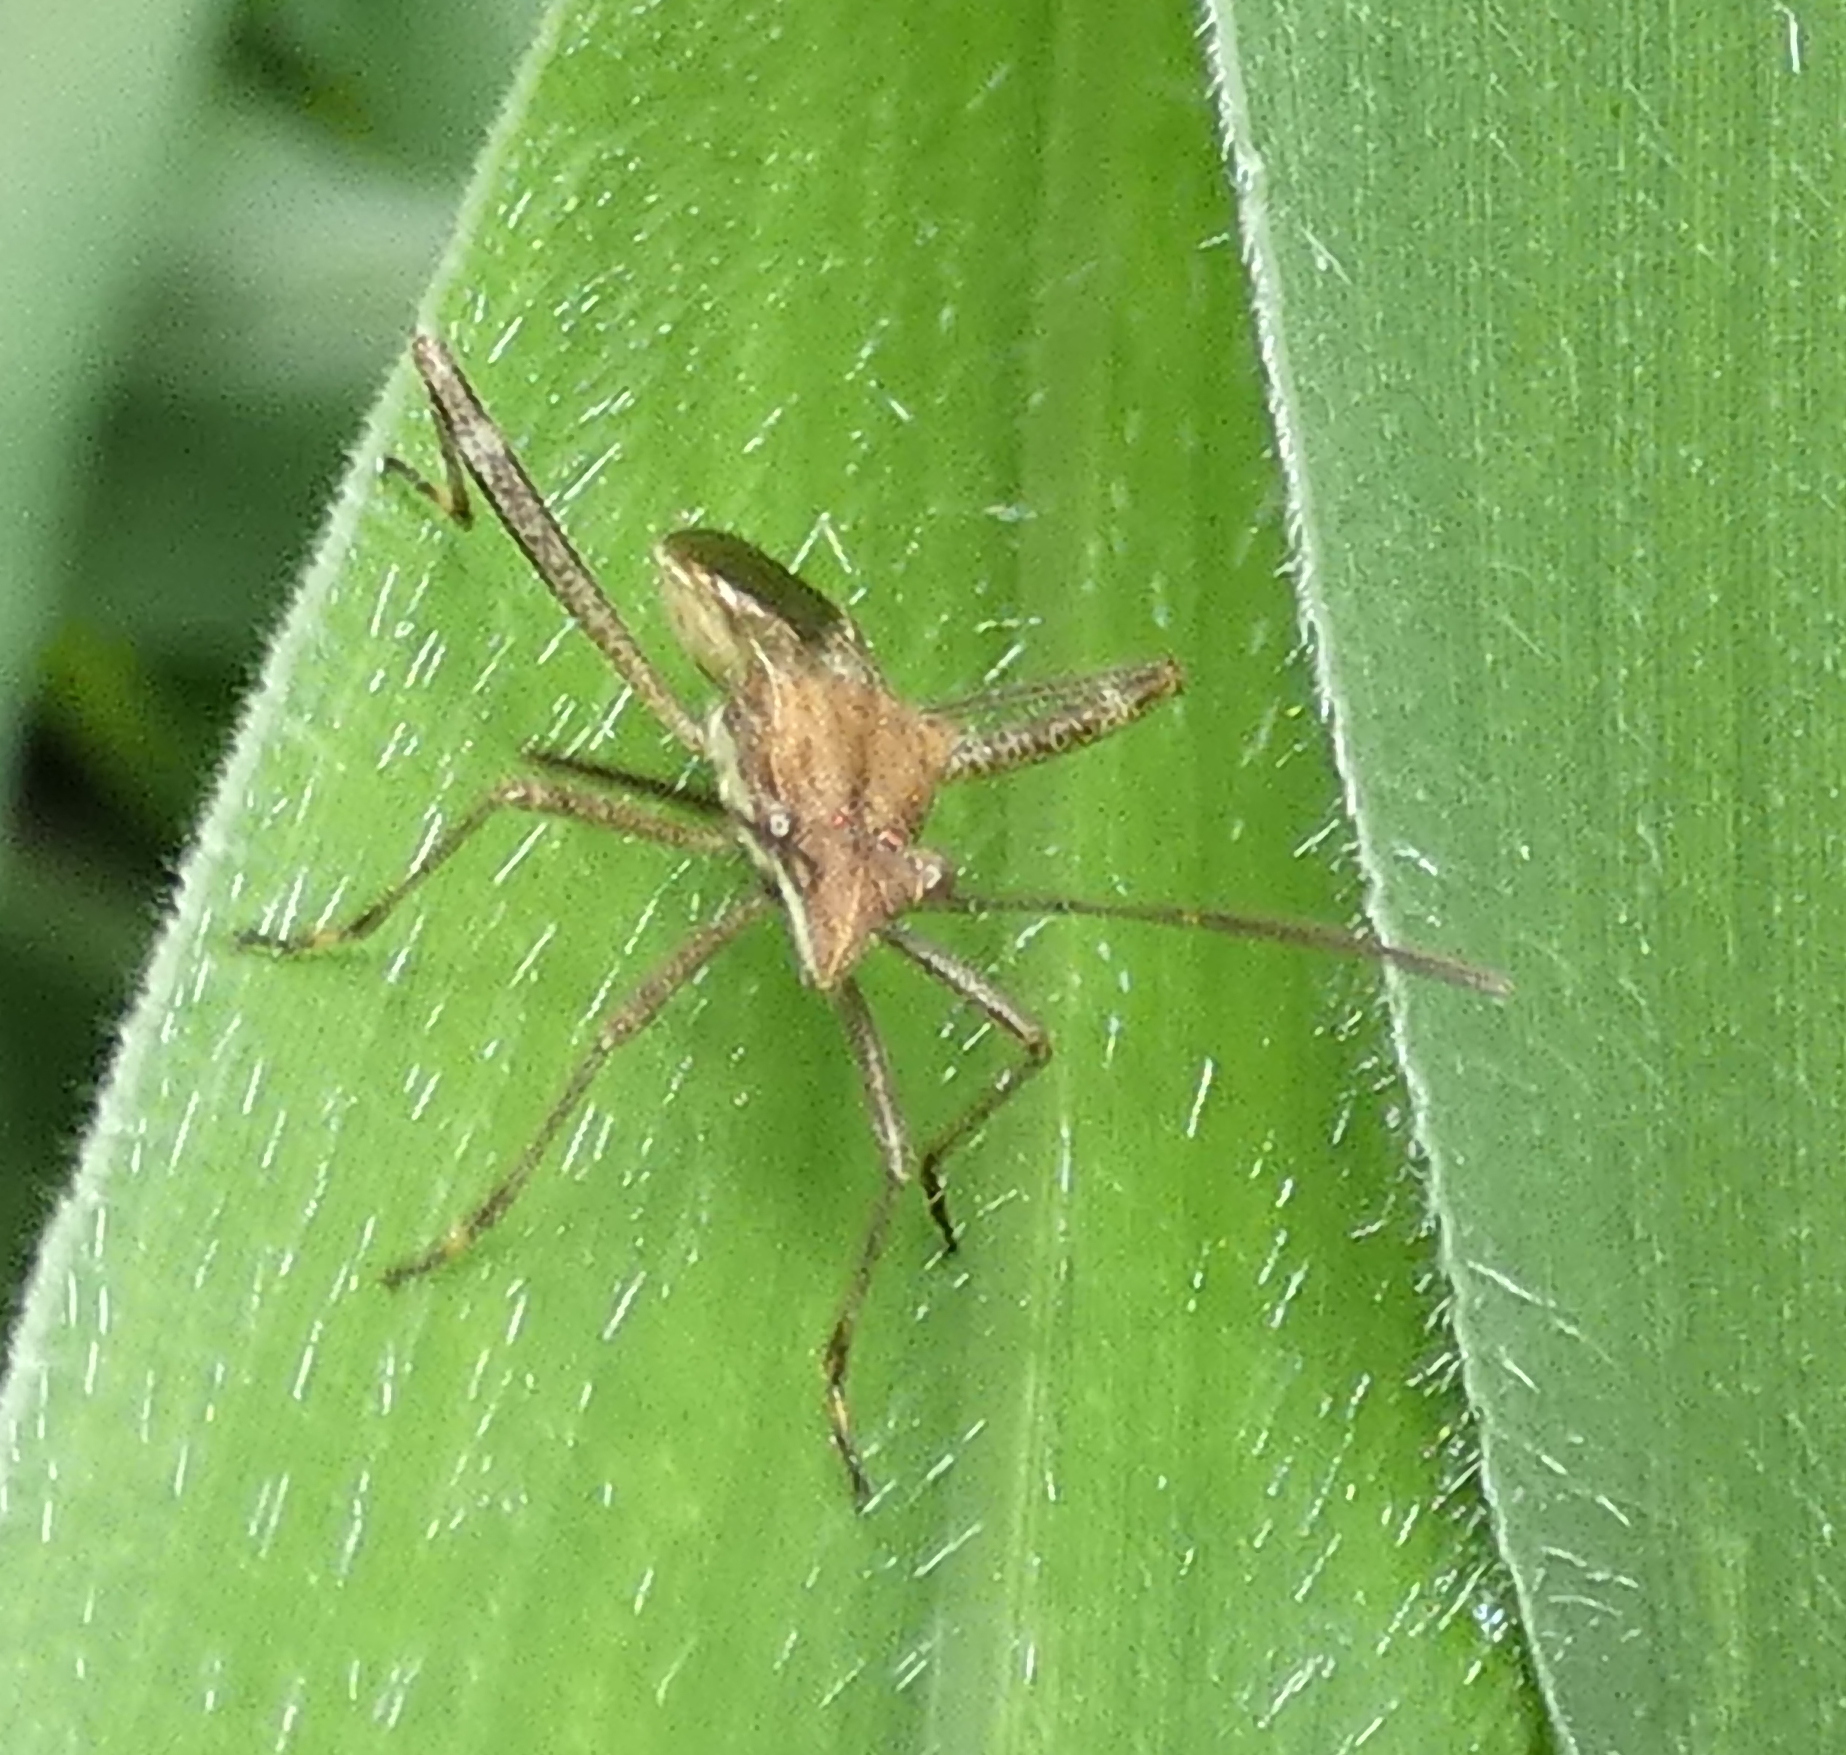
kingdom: Animalia
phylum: Arthropoda
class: Insecta
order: Hemiptera
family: Alydidae
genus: Neomegalotomus
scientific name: Neomegalotomus parvus
